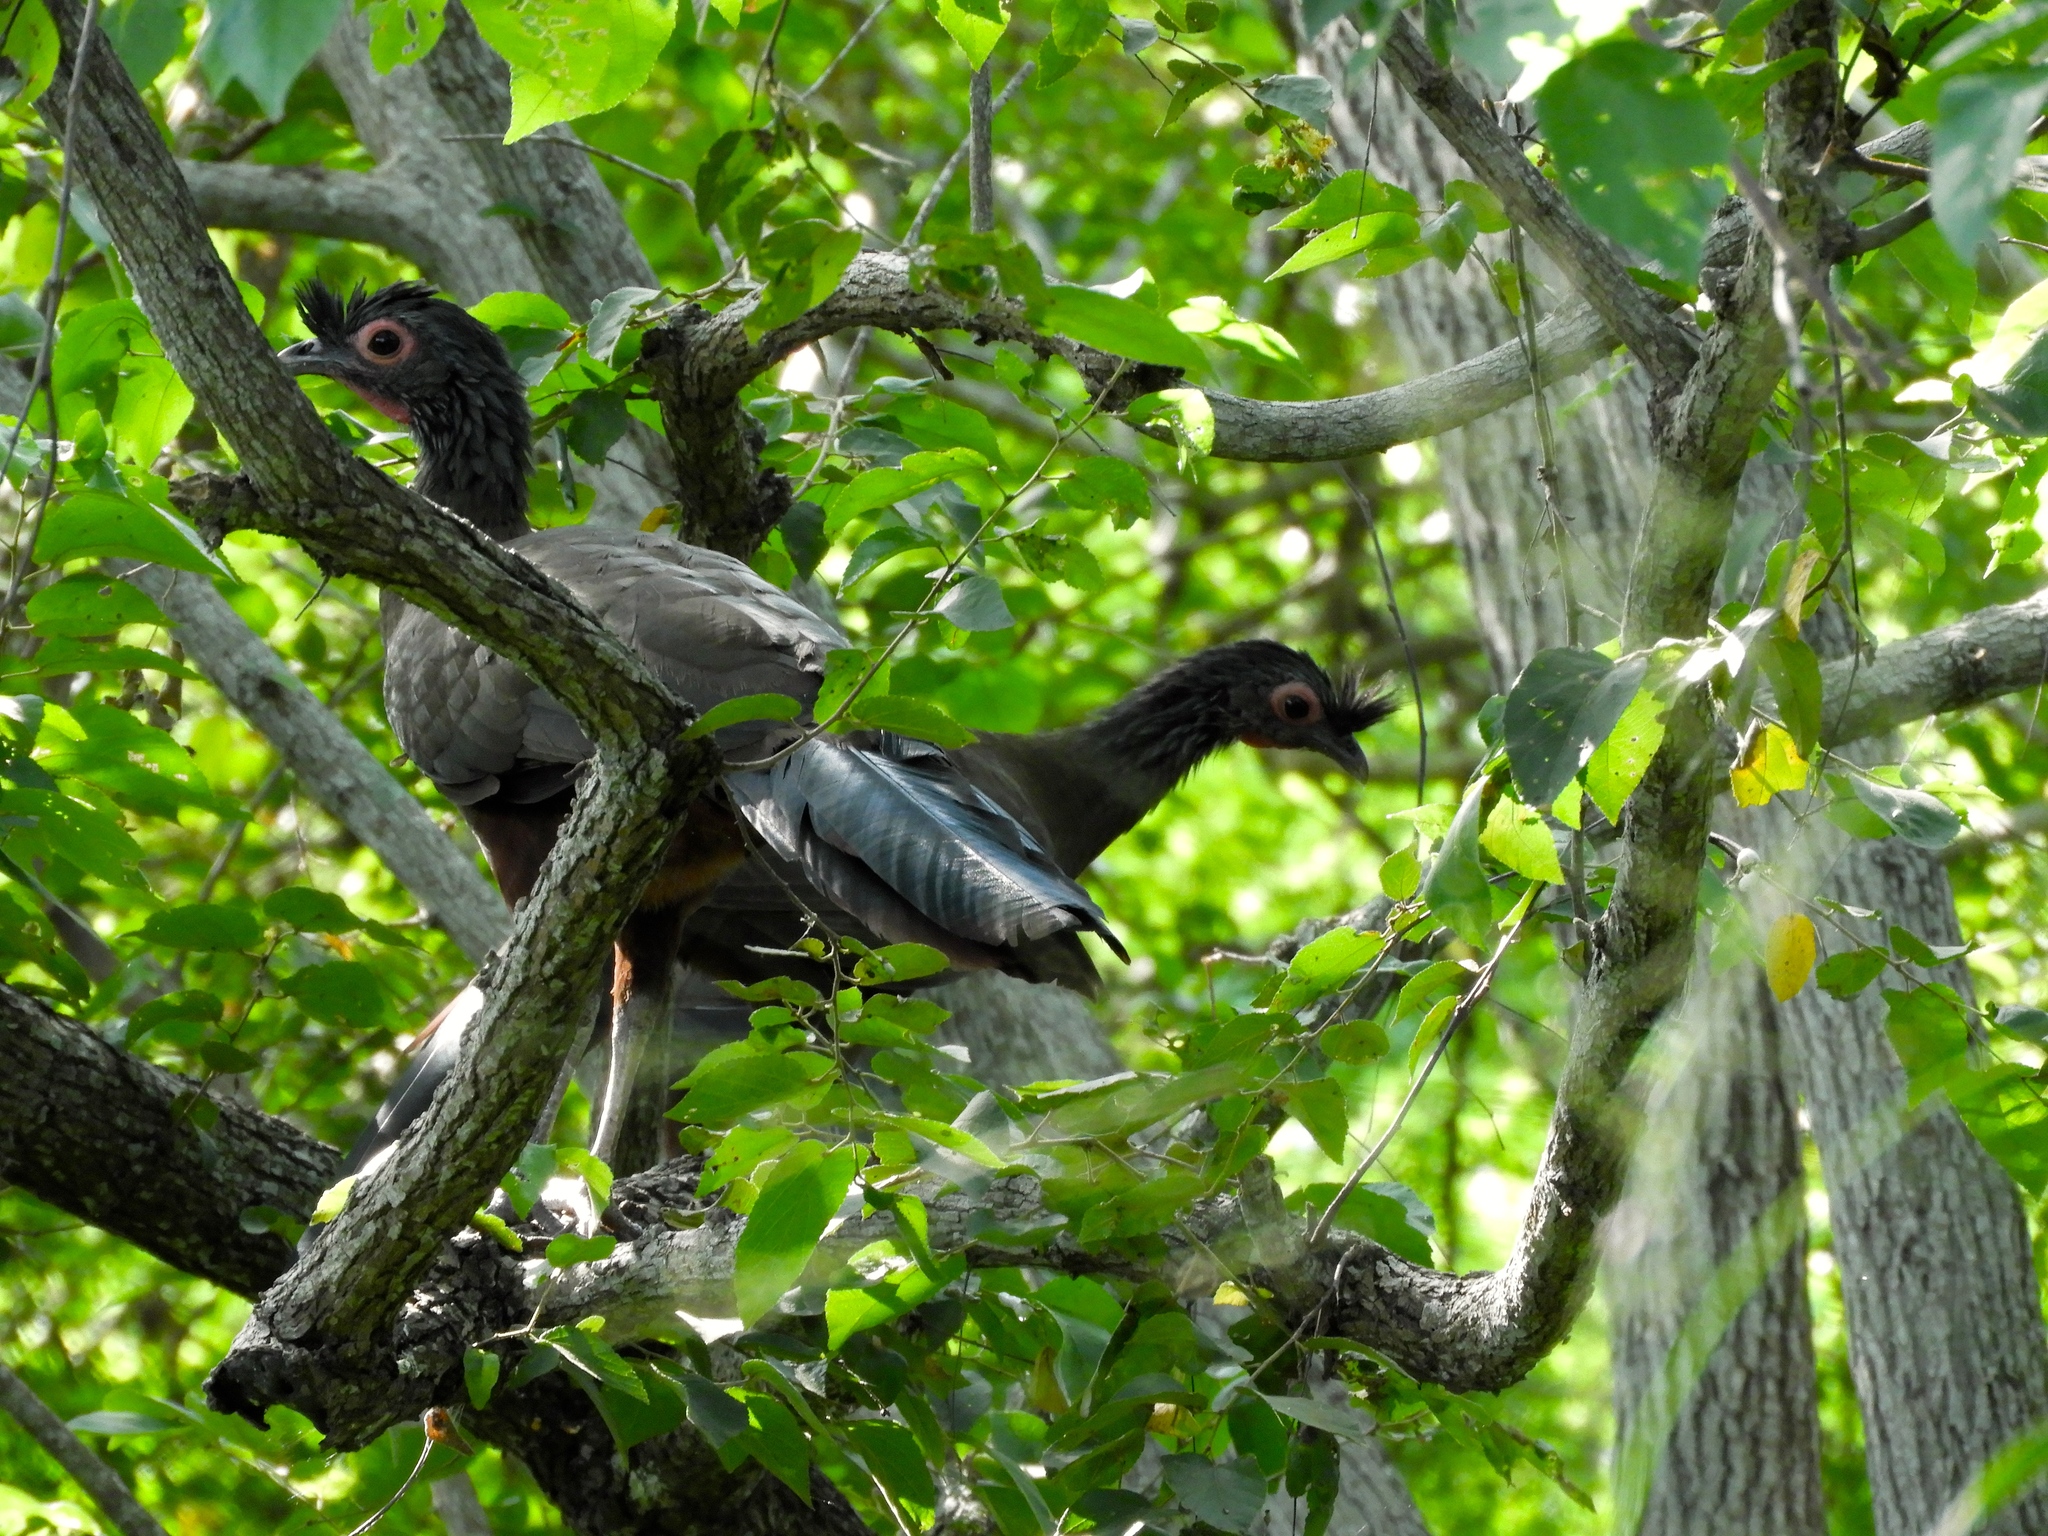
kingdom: Animalia
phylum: Chordata
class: Aves
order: Galliformes
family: Cracidae
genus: Ortalis
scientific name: Ortalis wagleri
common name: Rufous-bellied chachalaca
